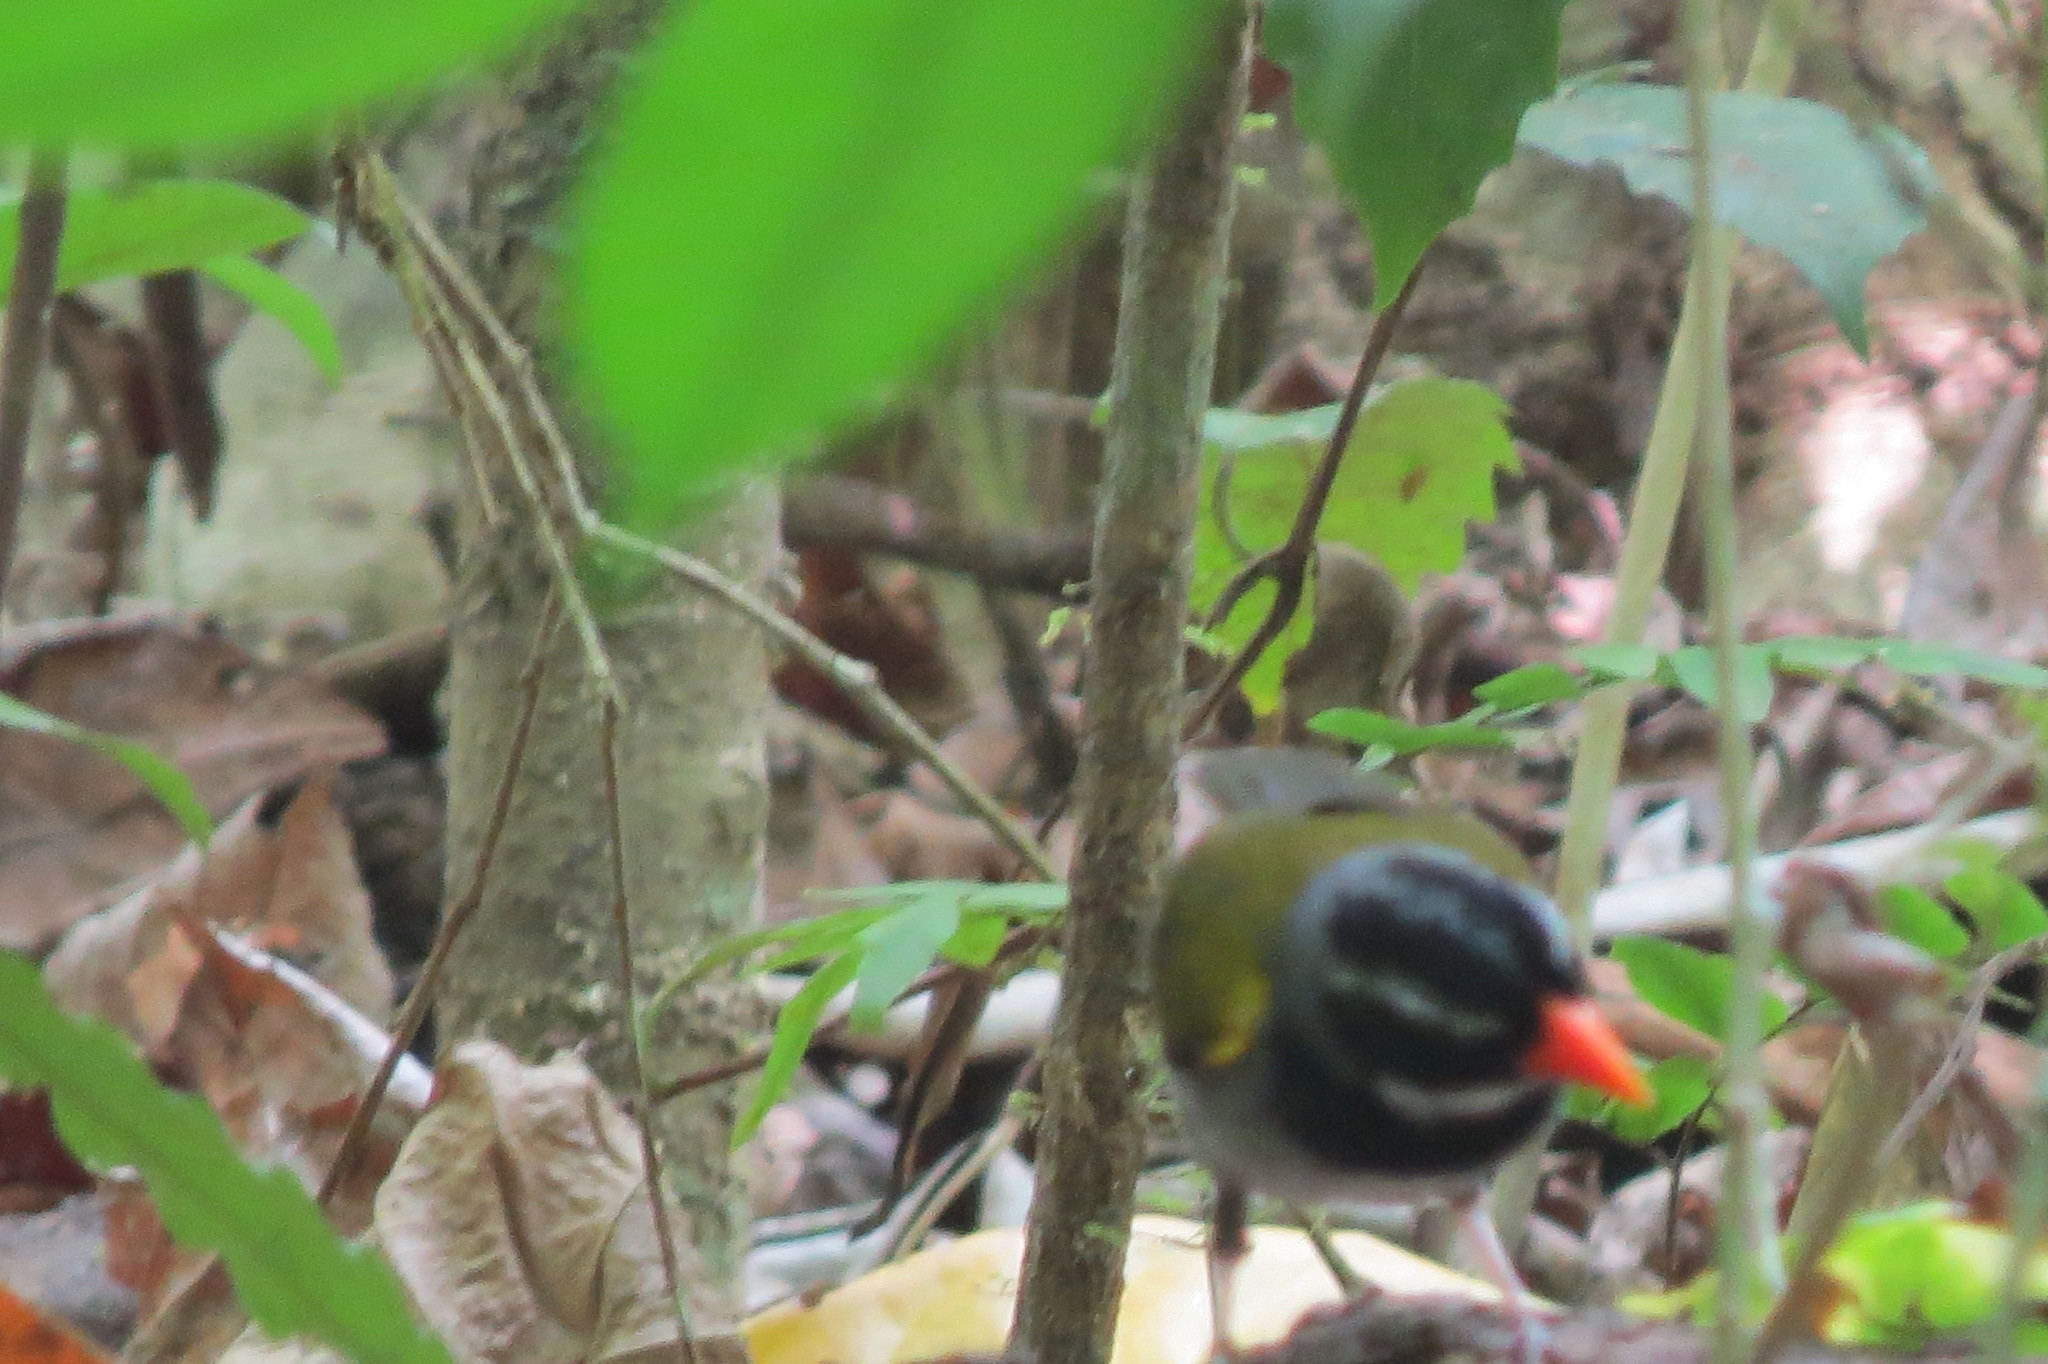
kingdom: Animalia
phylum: Chordata
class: Aves
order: Passeriformes
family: Passerellidae
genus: Arremon
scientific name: Arremon aurantiirostris
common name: Orange-billed sparrow
